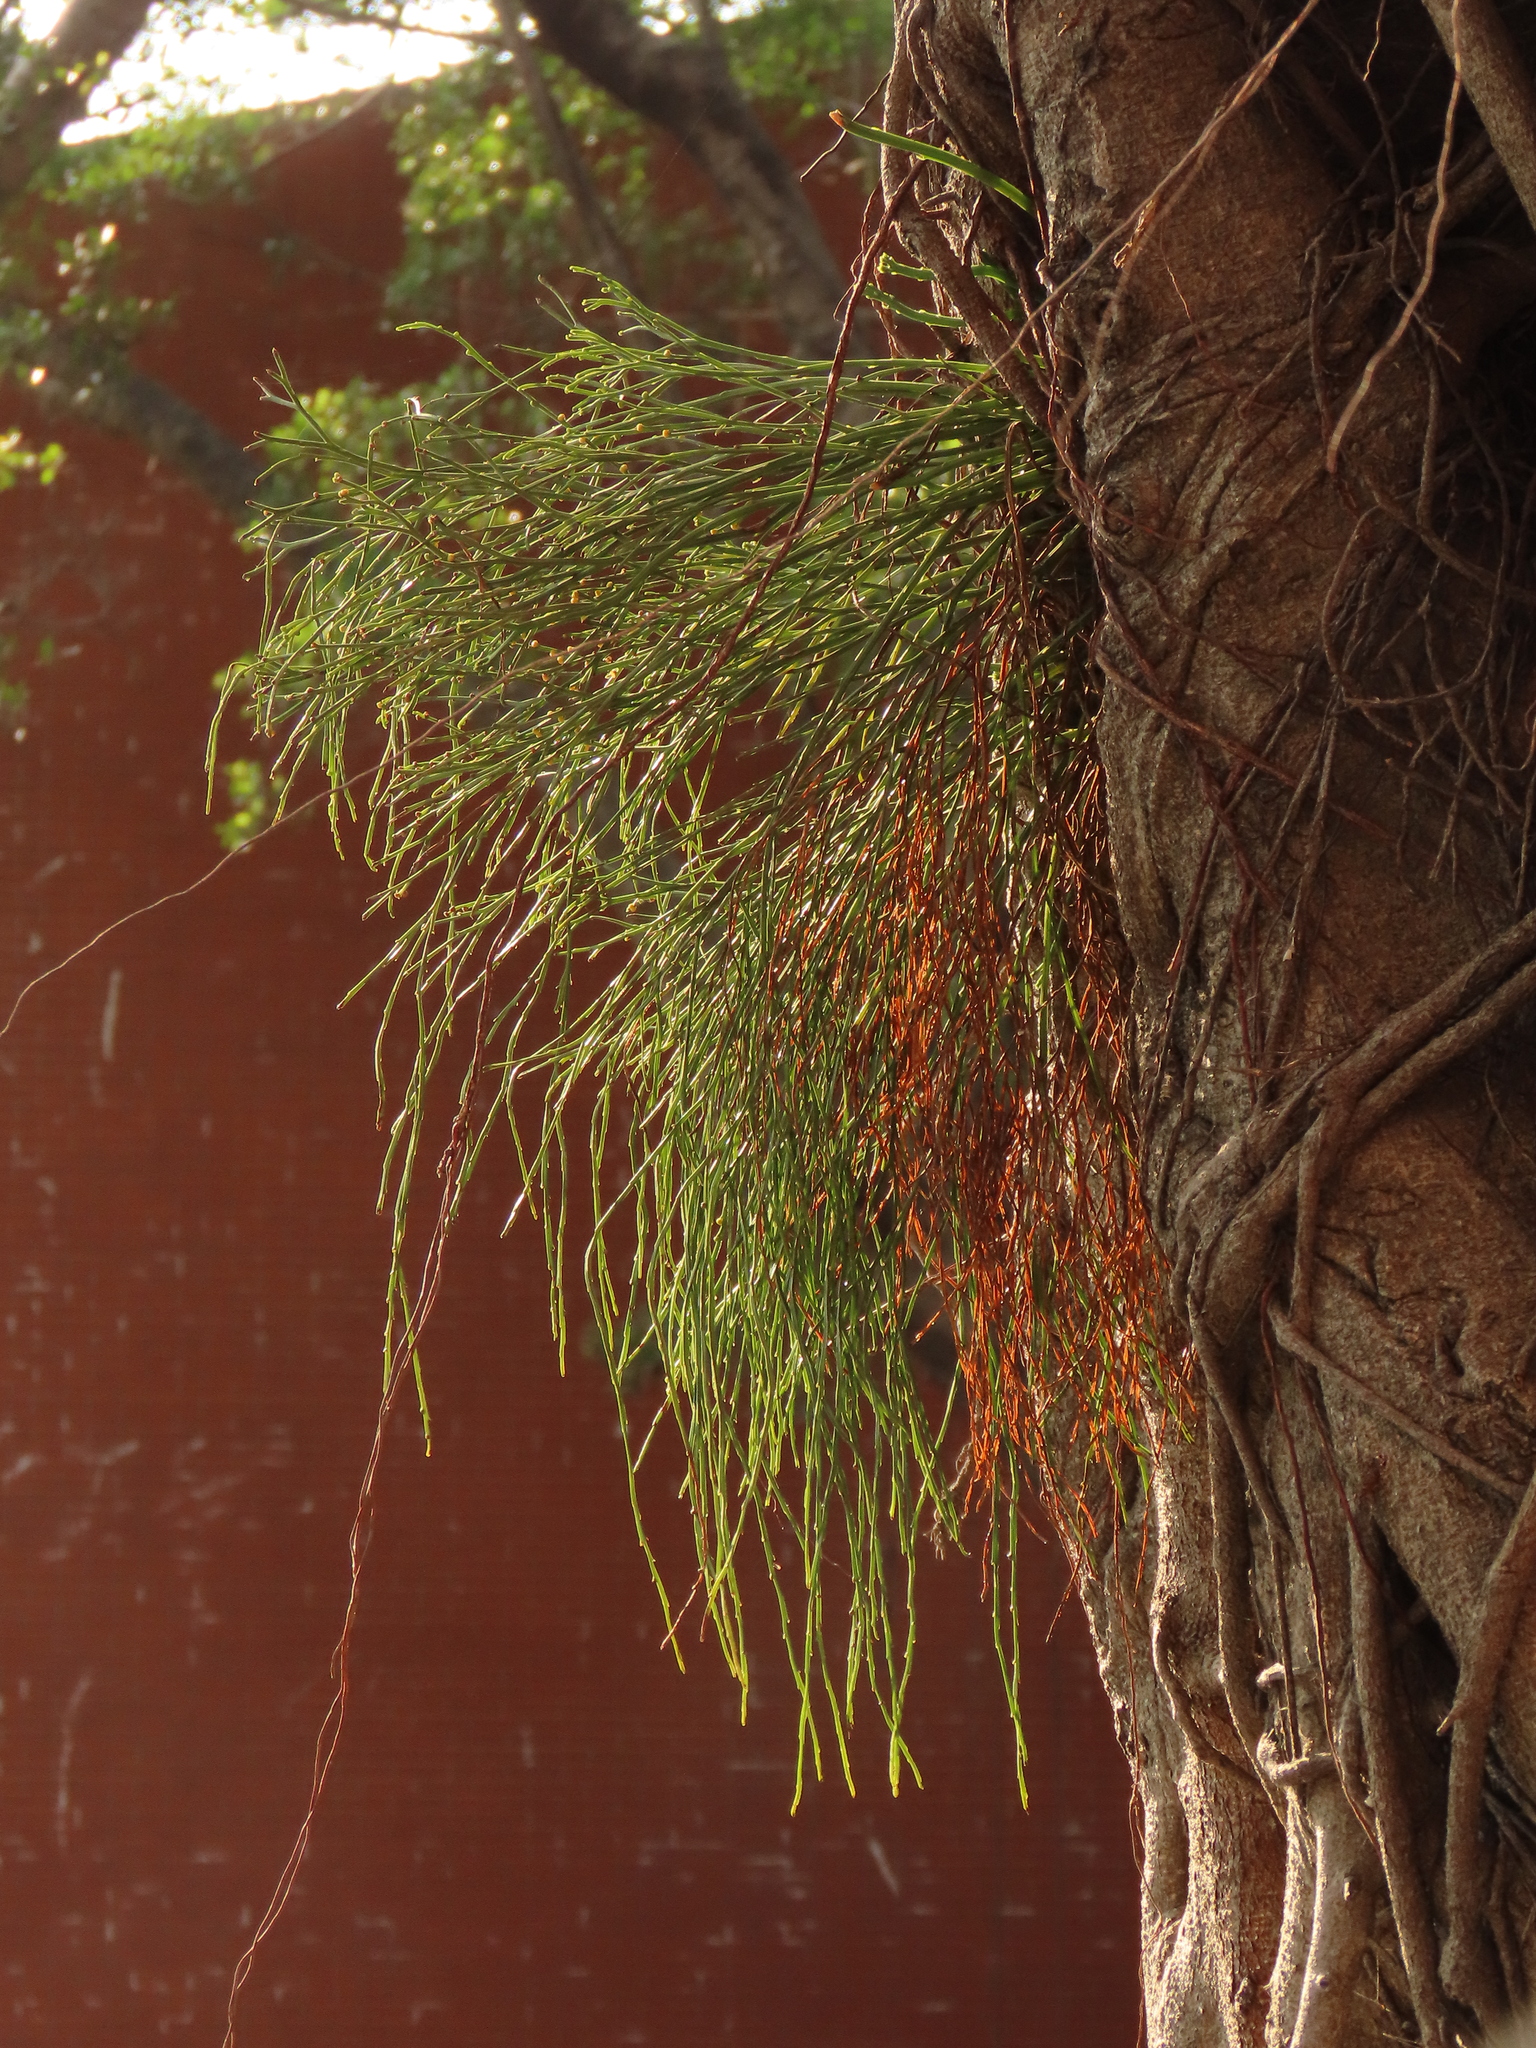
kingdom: Plantae
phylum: Tracheophyta
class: Polypodiopsida
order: Psilotales
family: Psilotaceae
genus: Psilotum
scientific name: Psilotum nudum
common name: Skeleton fork fern
